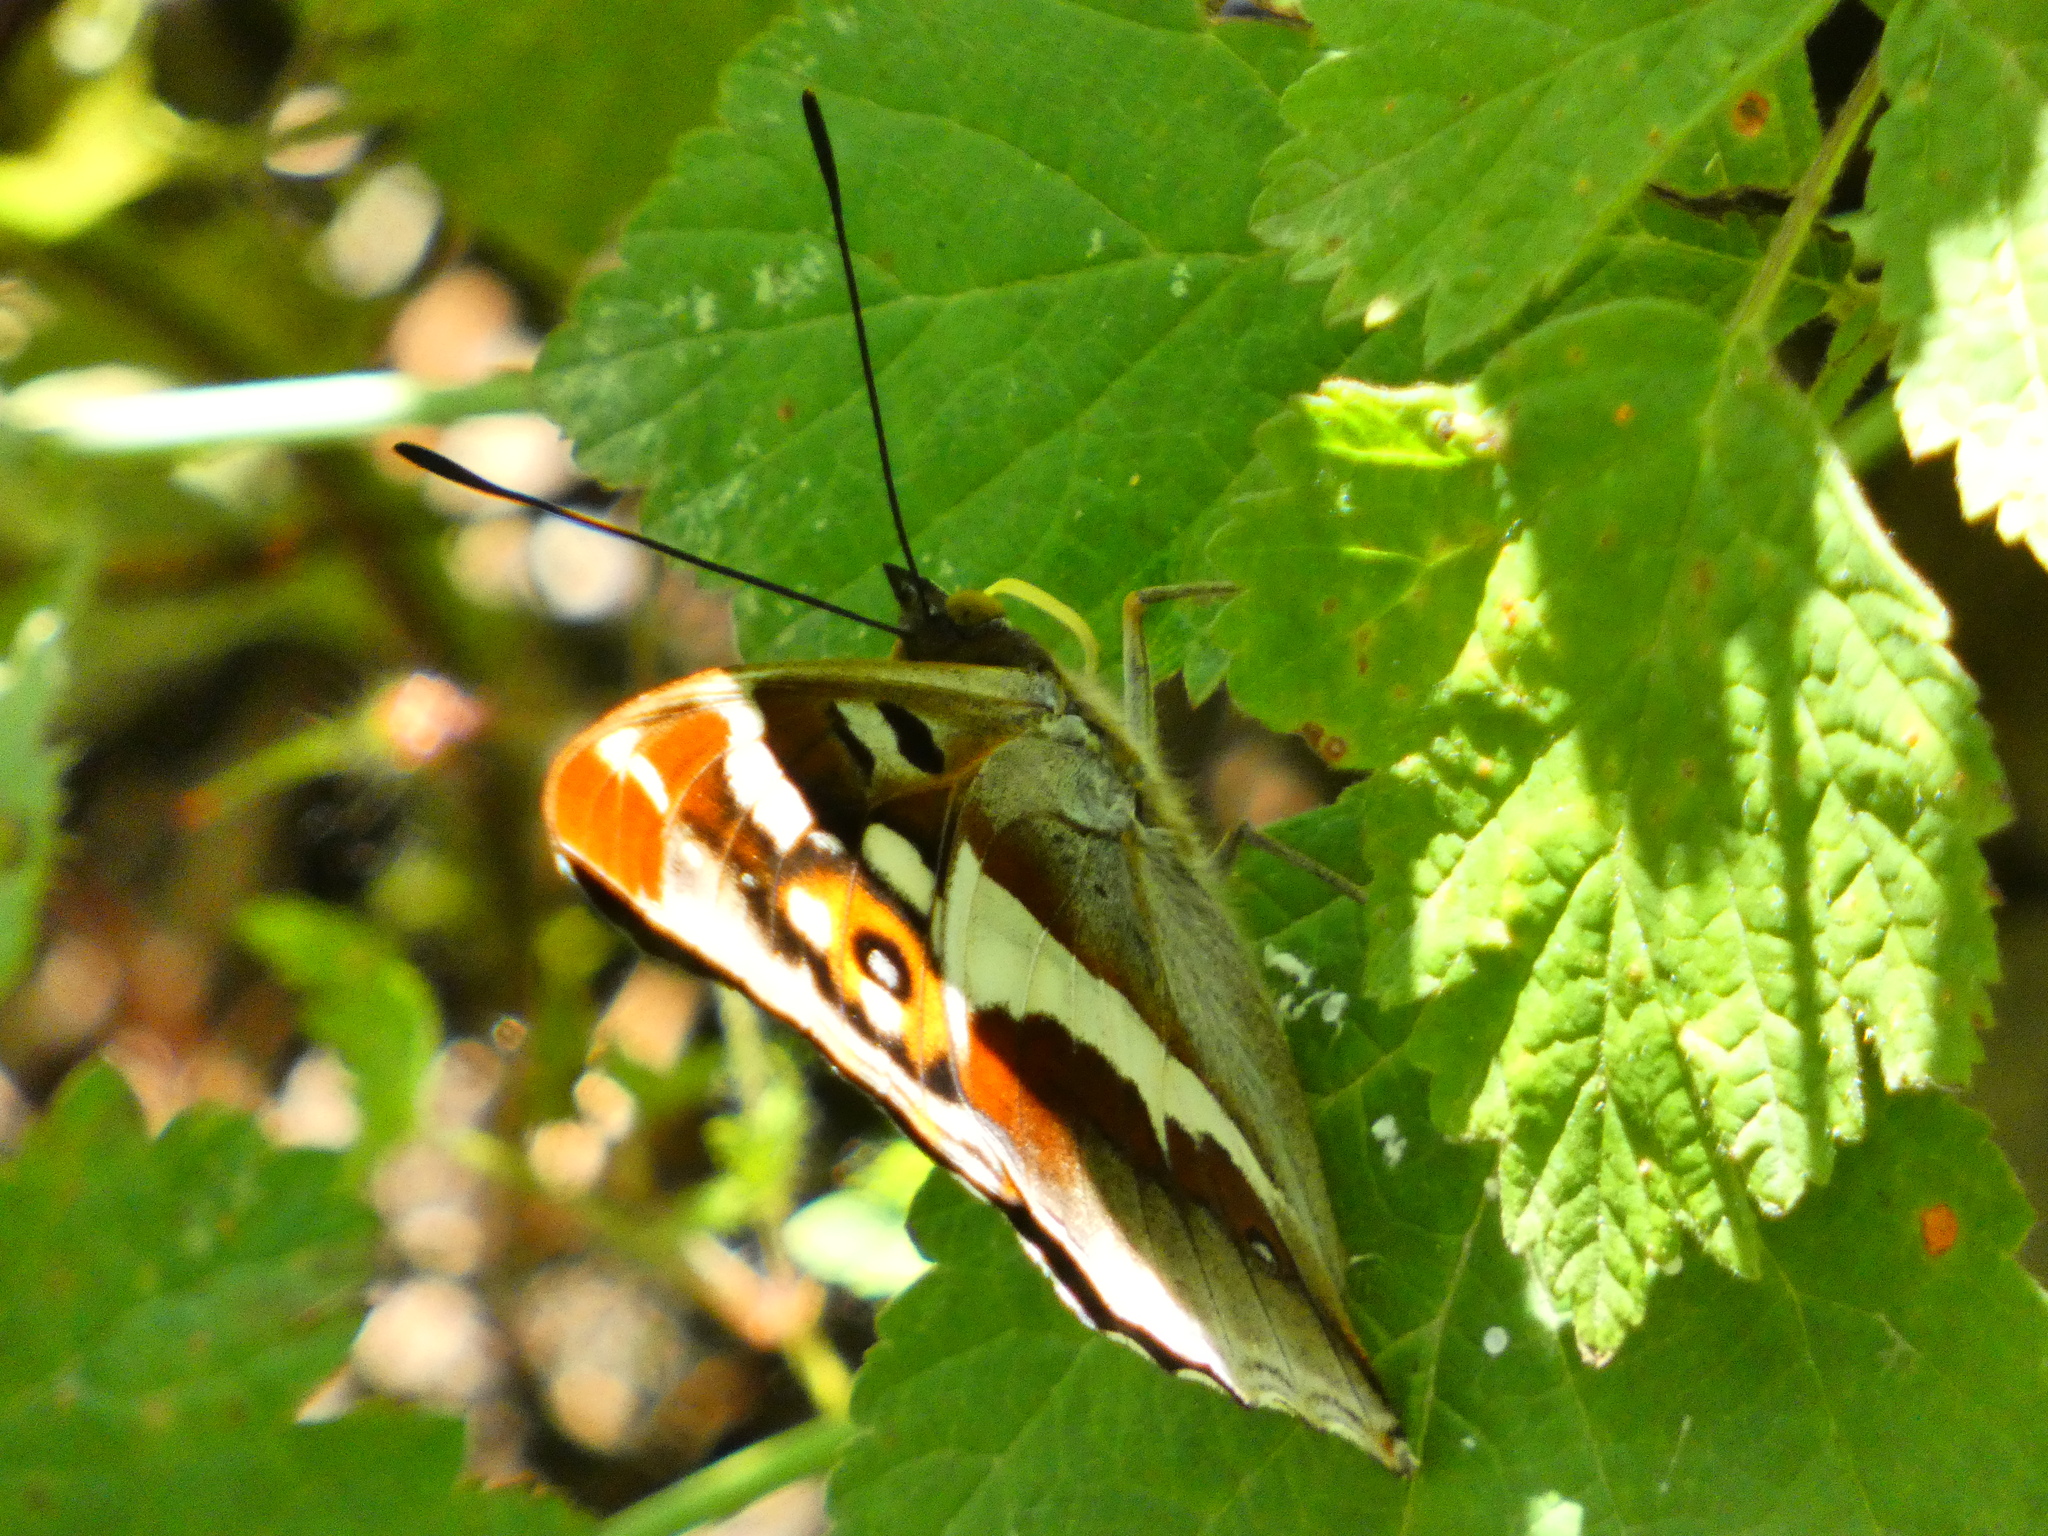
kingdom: Animalia
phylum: Arthropoda
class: Insecta
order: Lepidoptera
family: Nymphalidae
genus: Apatura
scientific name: Apatura iris
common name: Purple emperor
